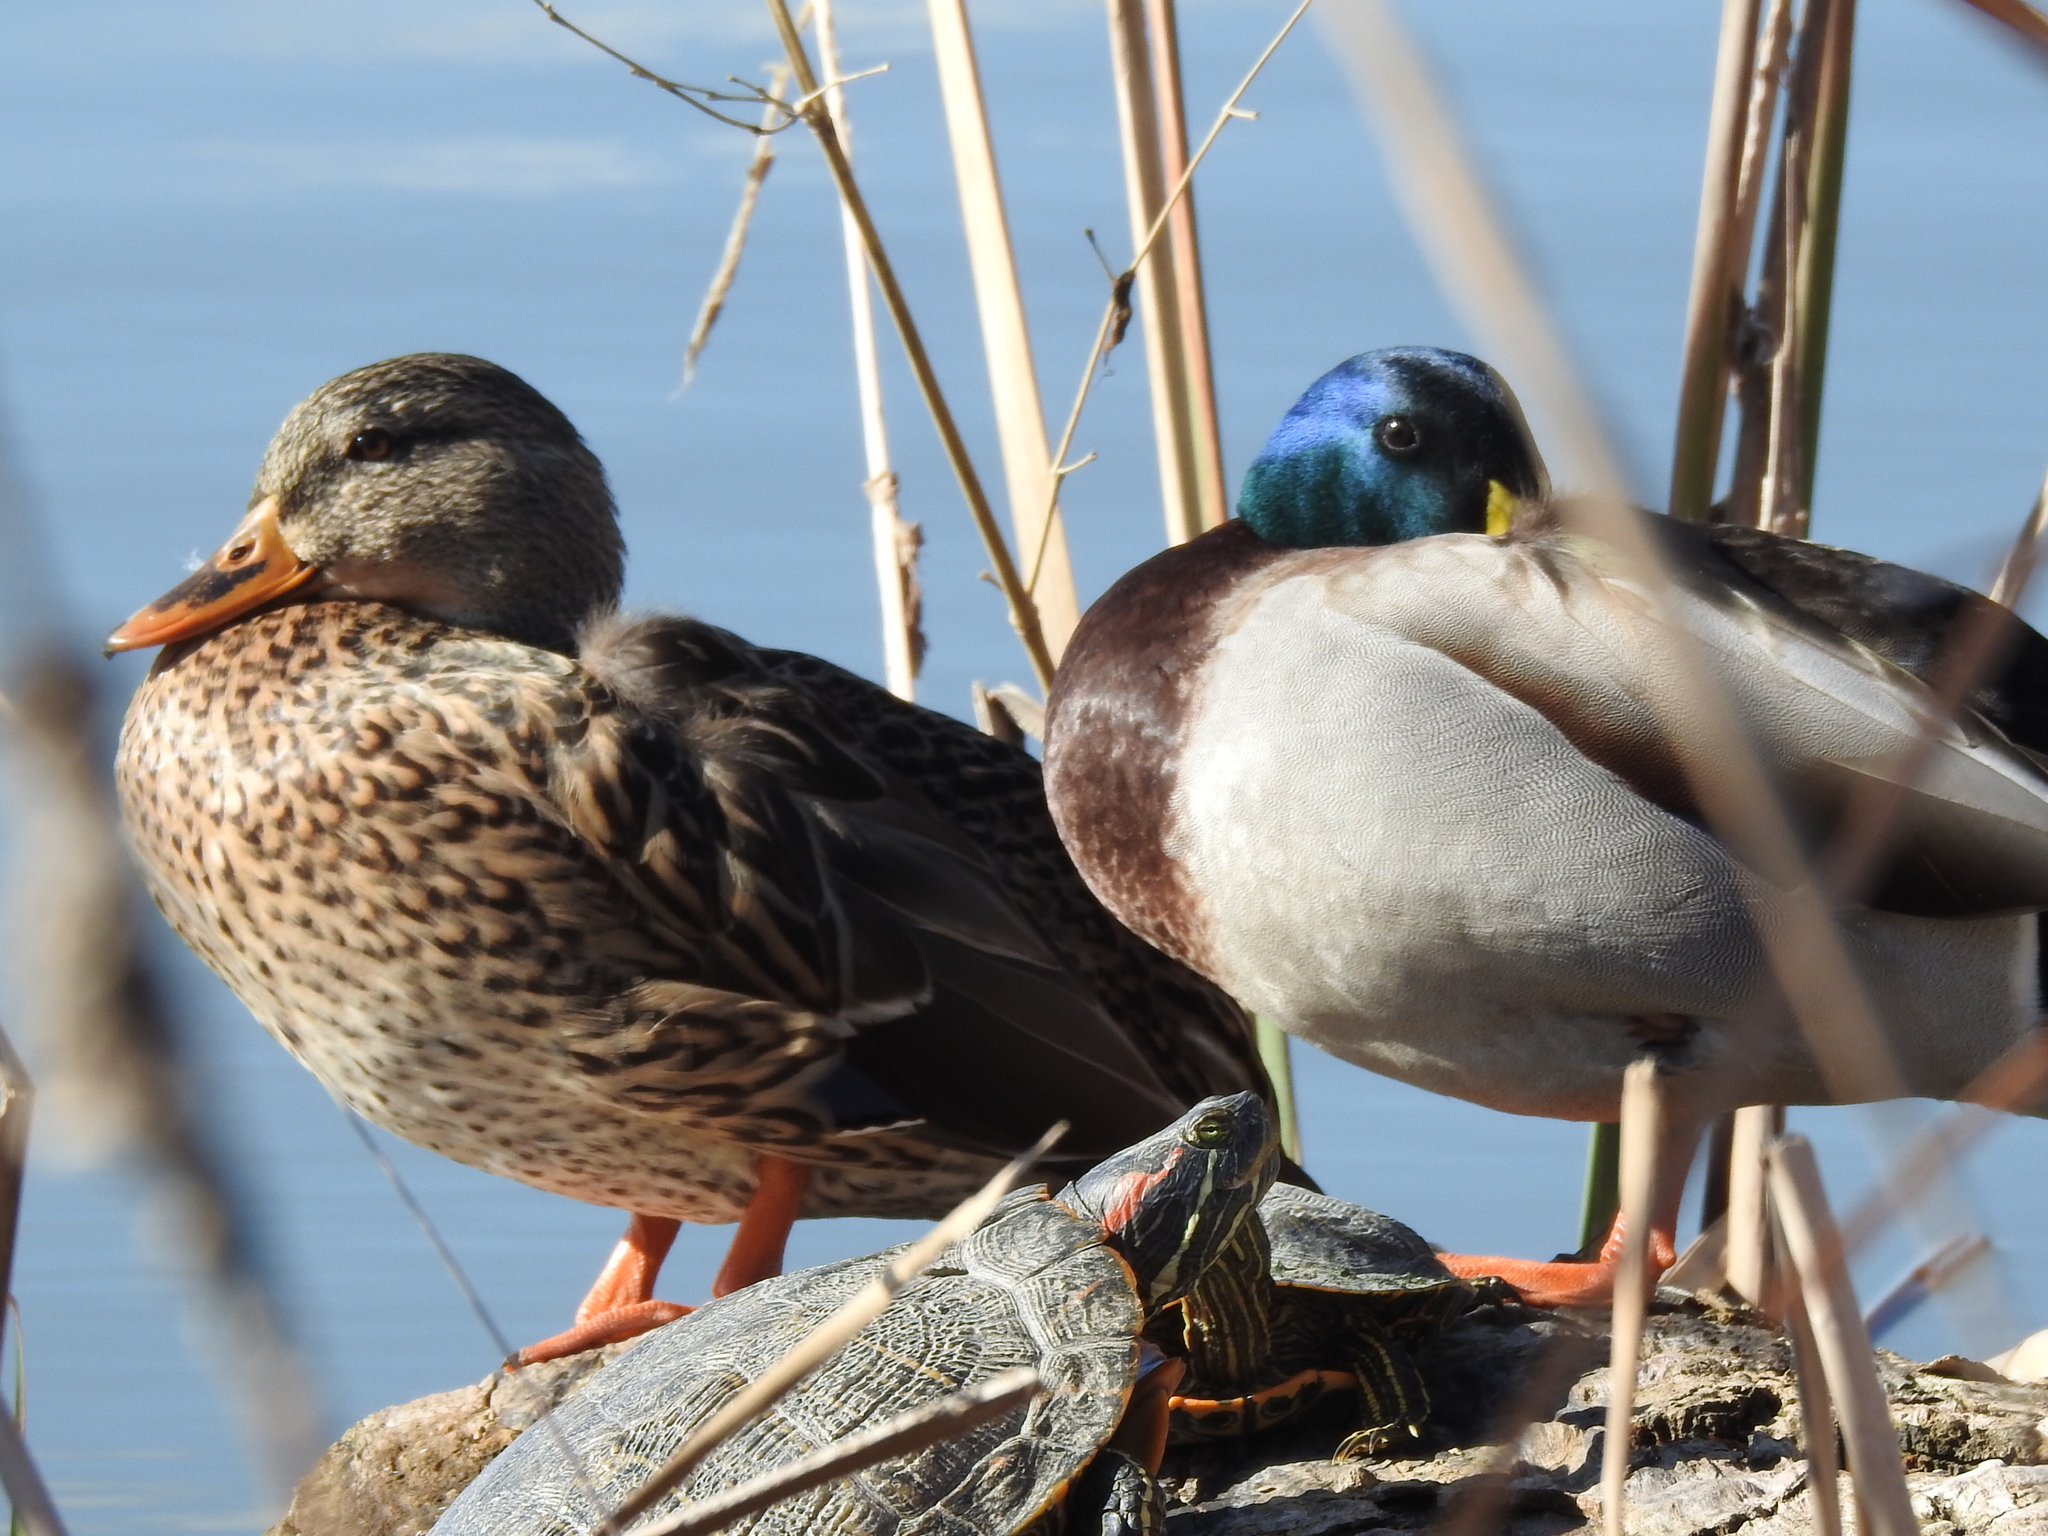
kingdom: Animalia
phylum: Chordata
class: Aves
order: Anseriformes
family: Anatidae
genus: Anas
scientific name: Anas platyrhynchos
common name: Mallard
